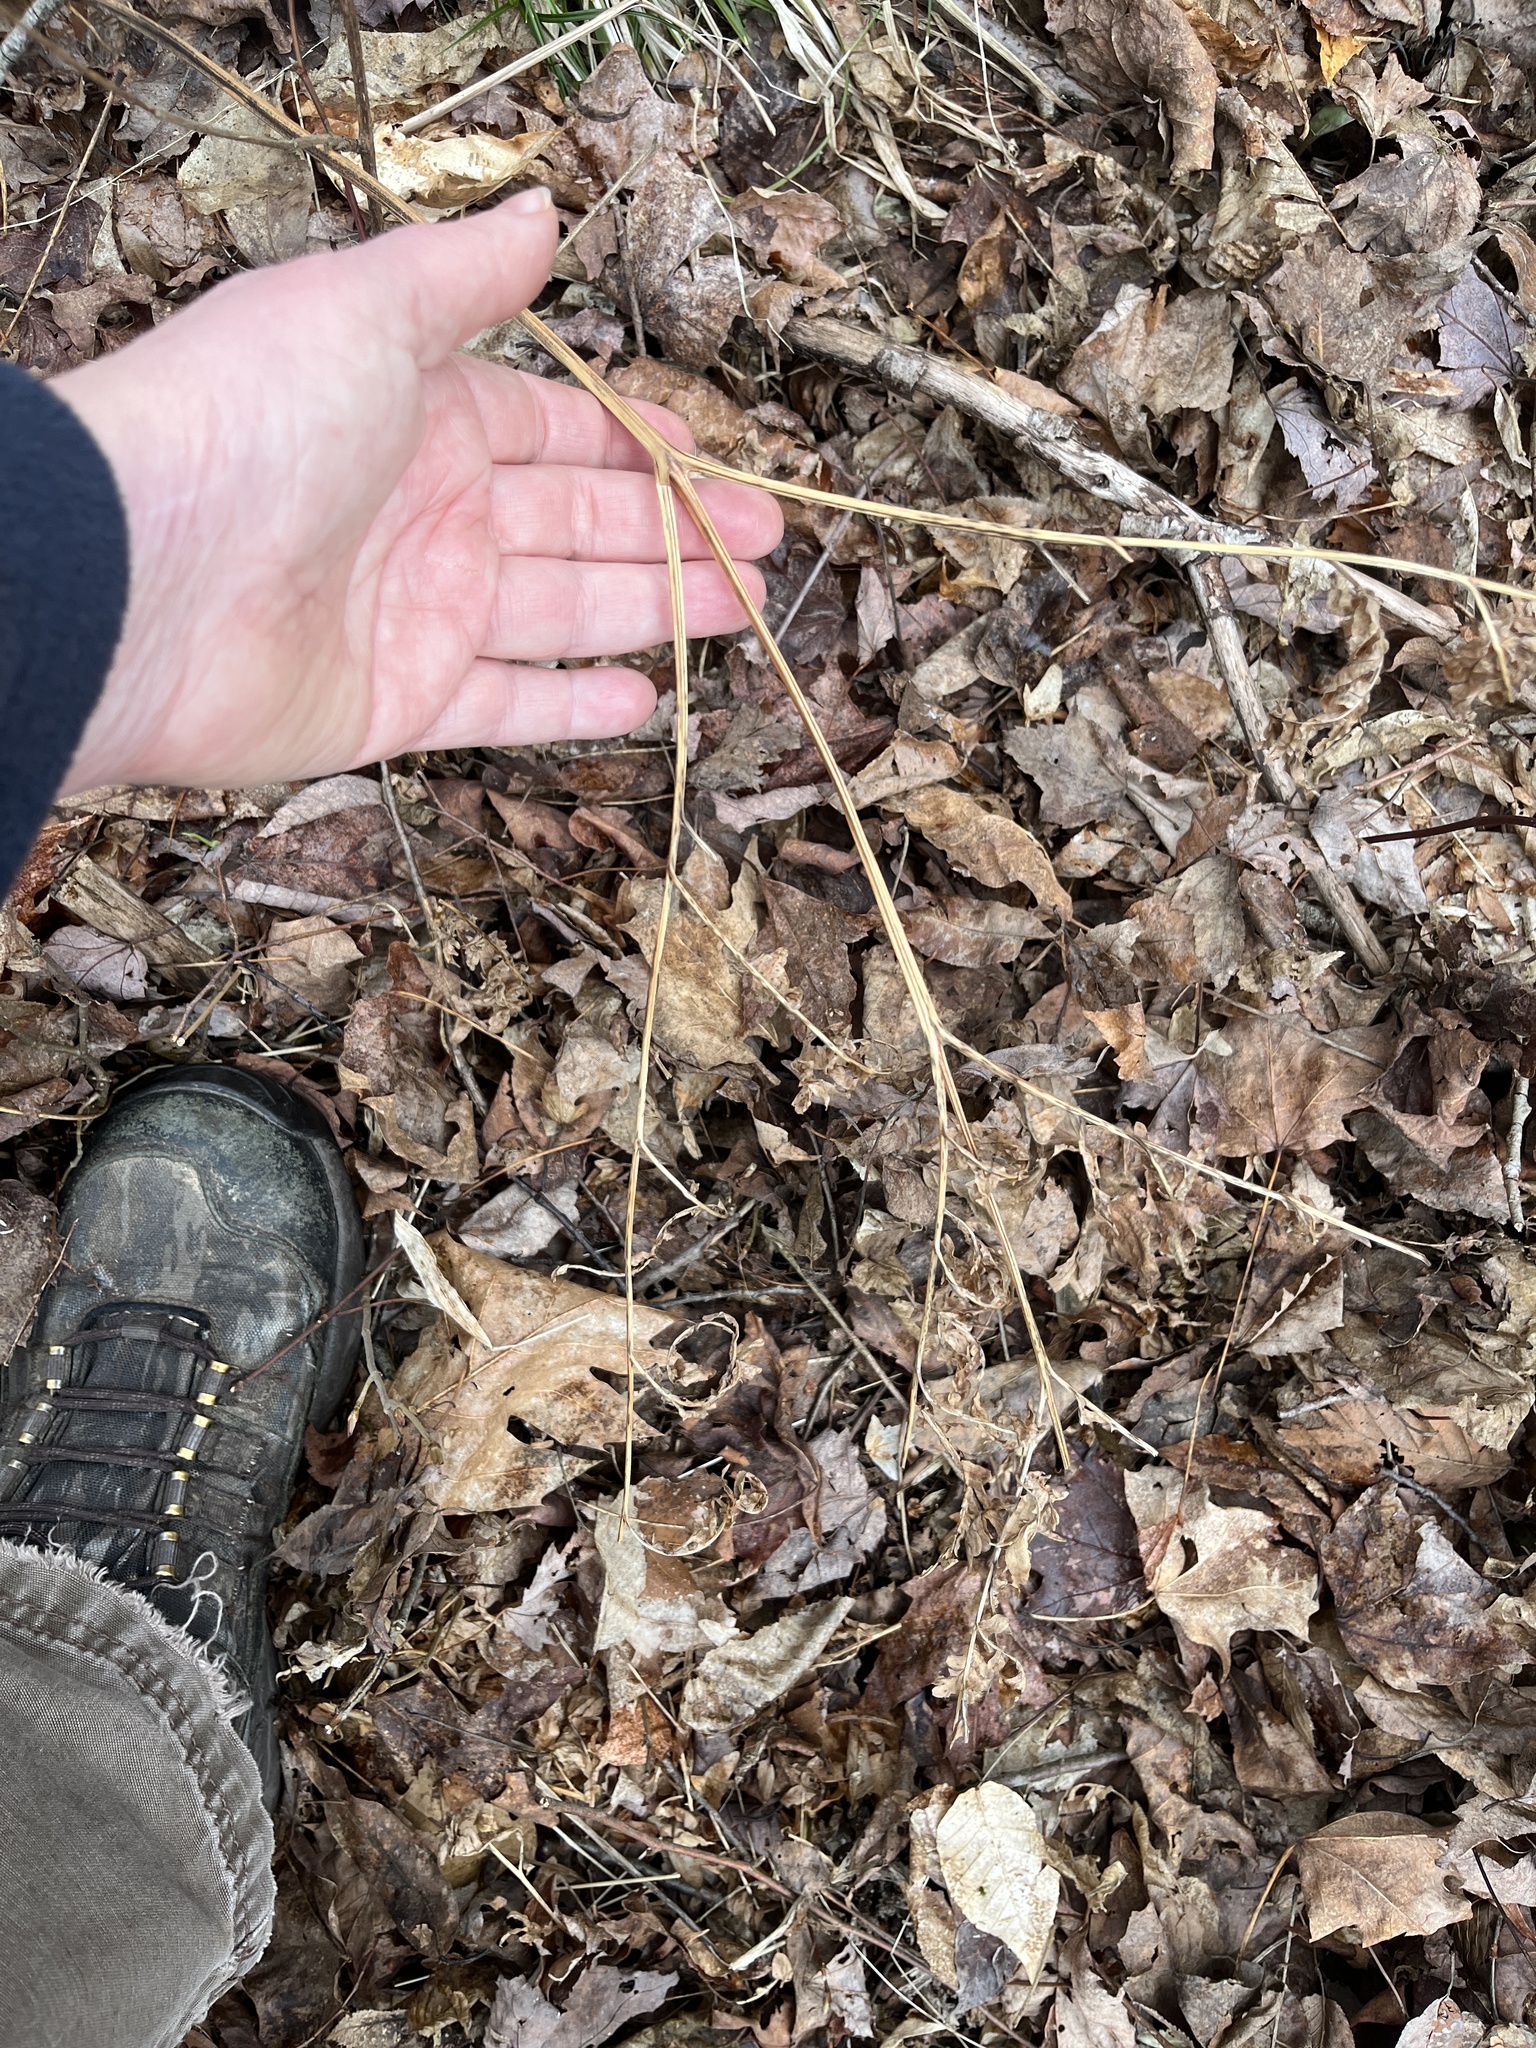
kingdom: Plantae
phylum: Tracheophyta
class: Polypodiopsida
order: Polypodiales
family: Dennstaedtiaceae
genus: Pteridium
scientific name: Pteridium aquilinum
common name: Bracken
